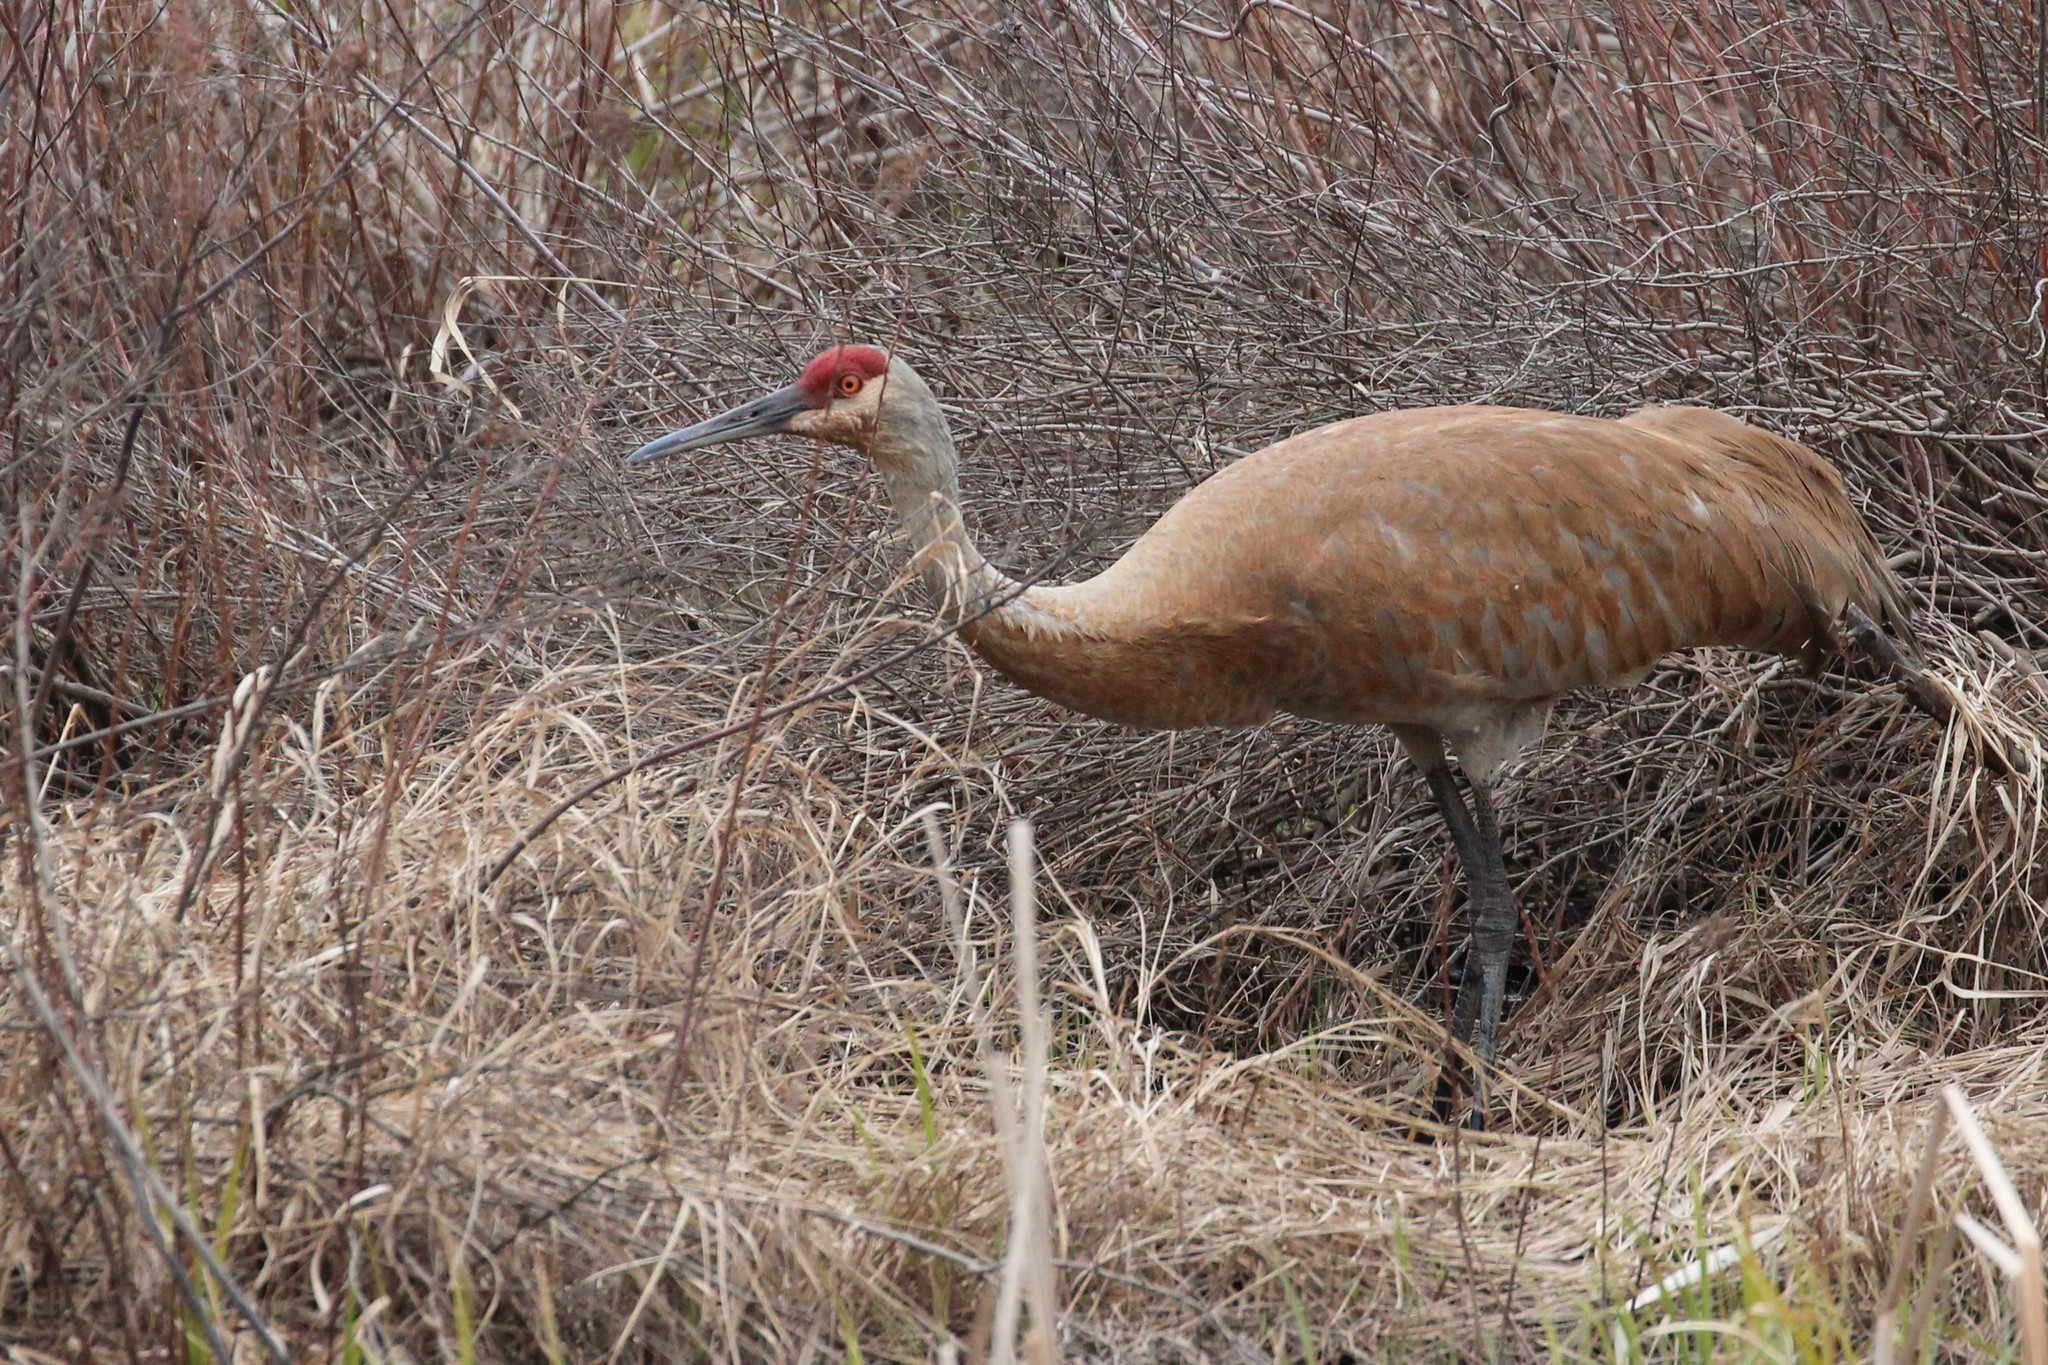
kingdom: Animalia
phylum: Chordata
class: Aves
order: Gruiformes
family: Gruidae
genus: Grus
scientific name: Grus canadensis
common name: Sandhill crane
